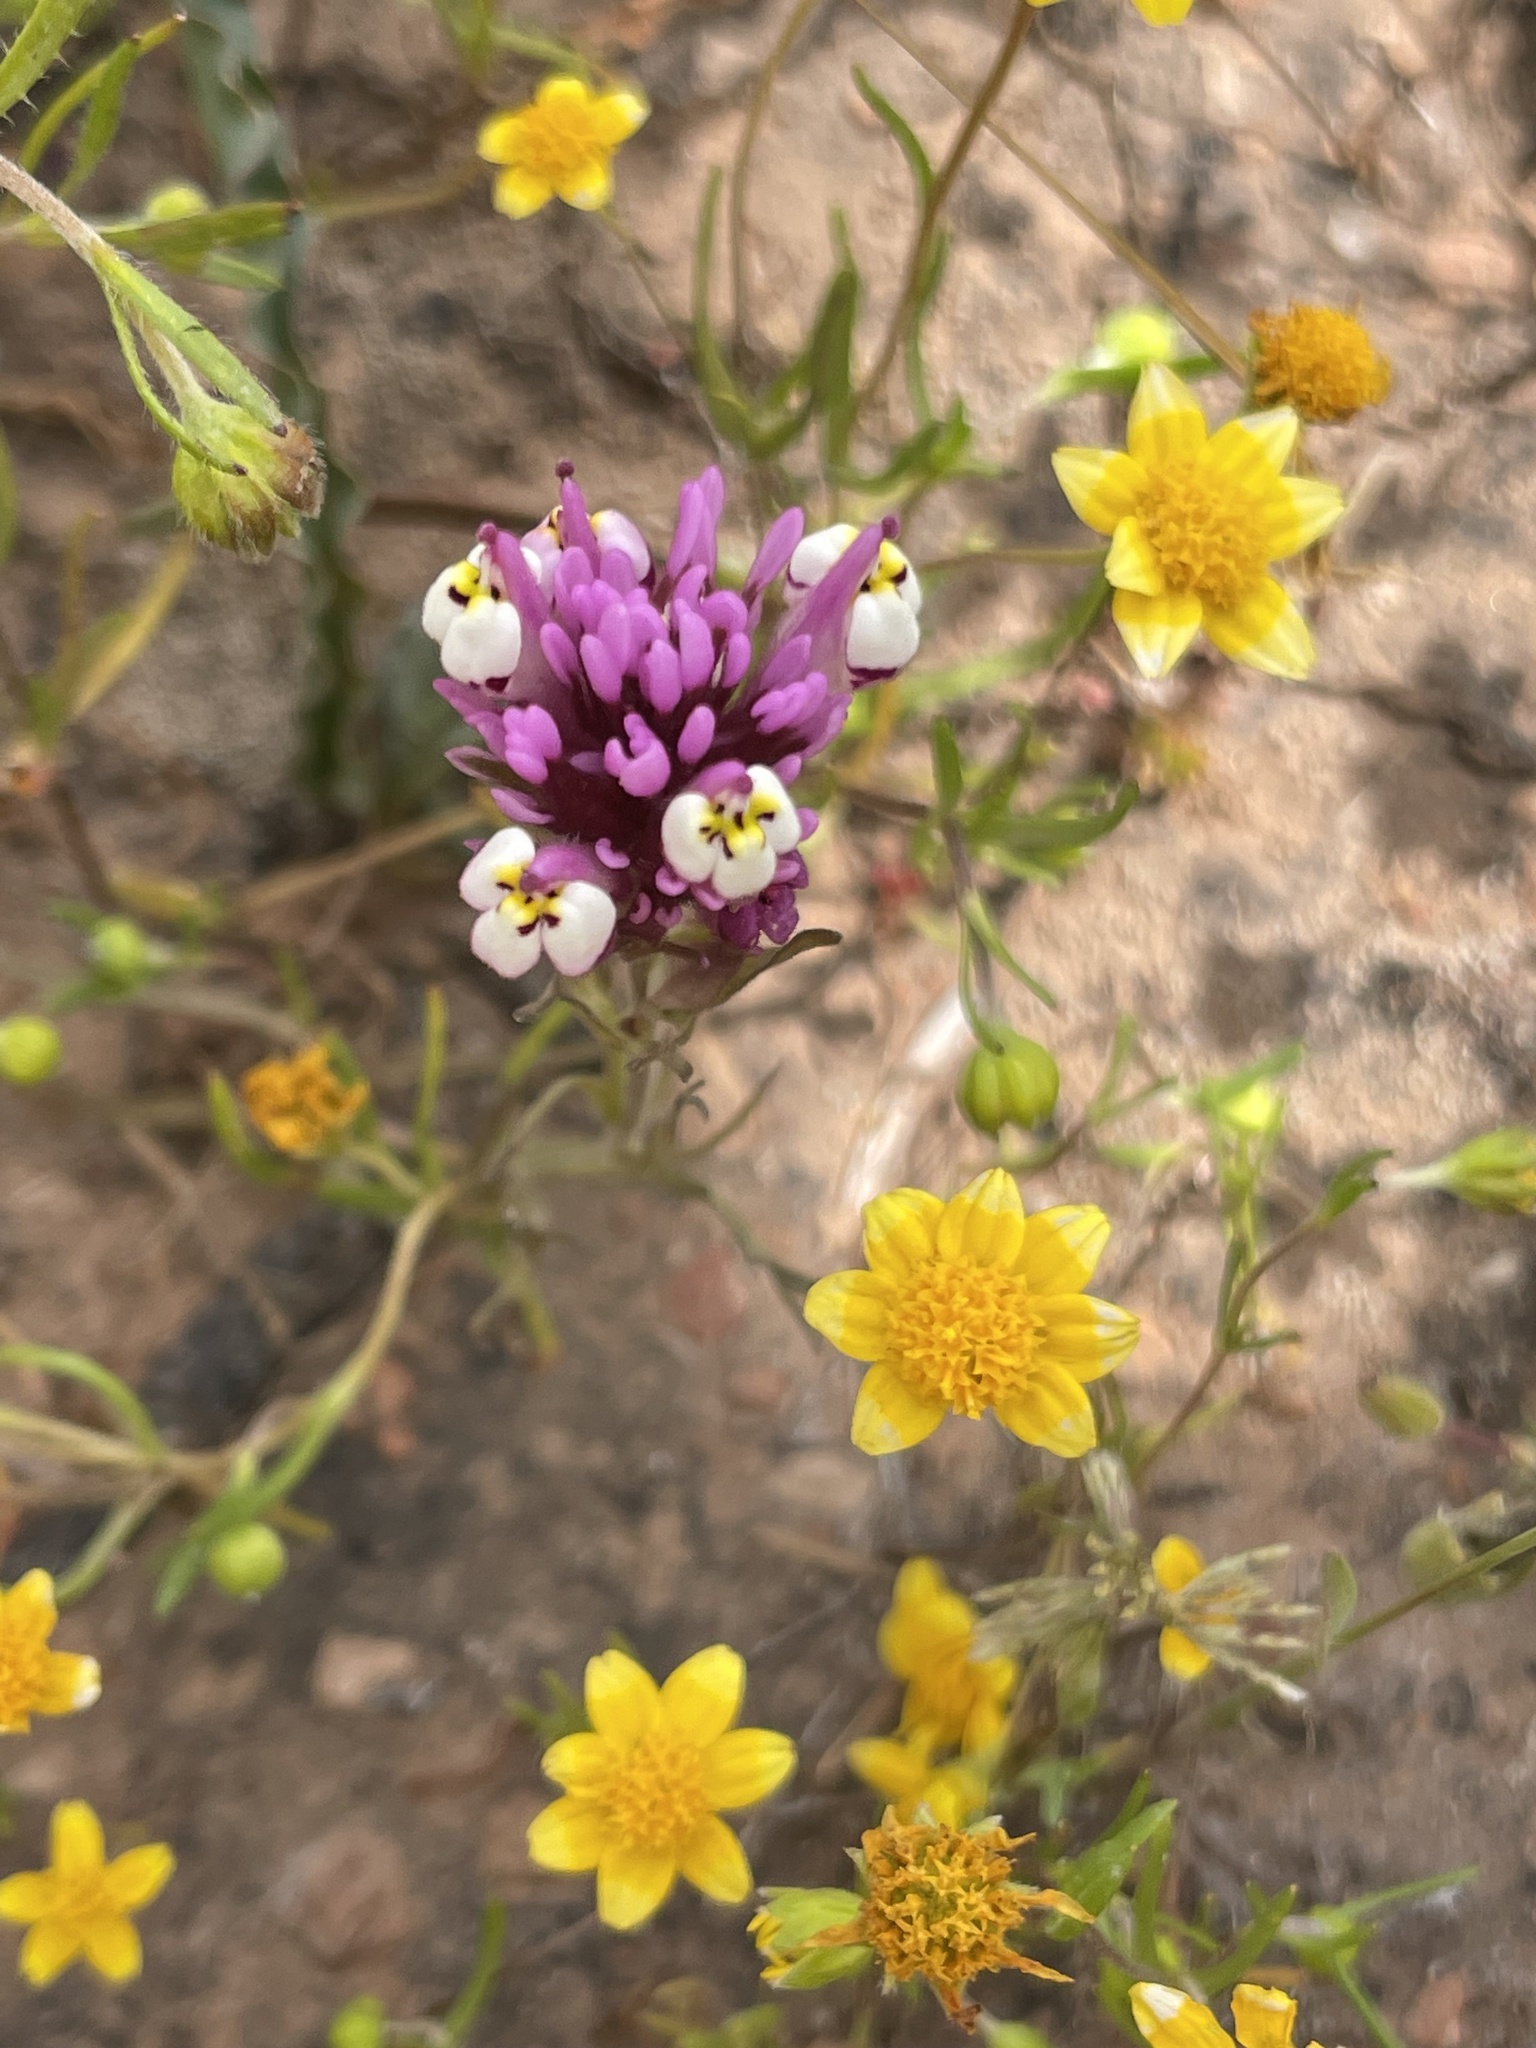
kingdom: Plantae
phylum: Tracheophyta
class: Magnoliopsida
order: Lamiales
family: Orobanchaceae
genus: Castilleja
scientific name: Castilleja densiflora
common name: Dense-flower indian paintbrush
